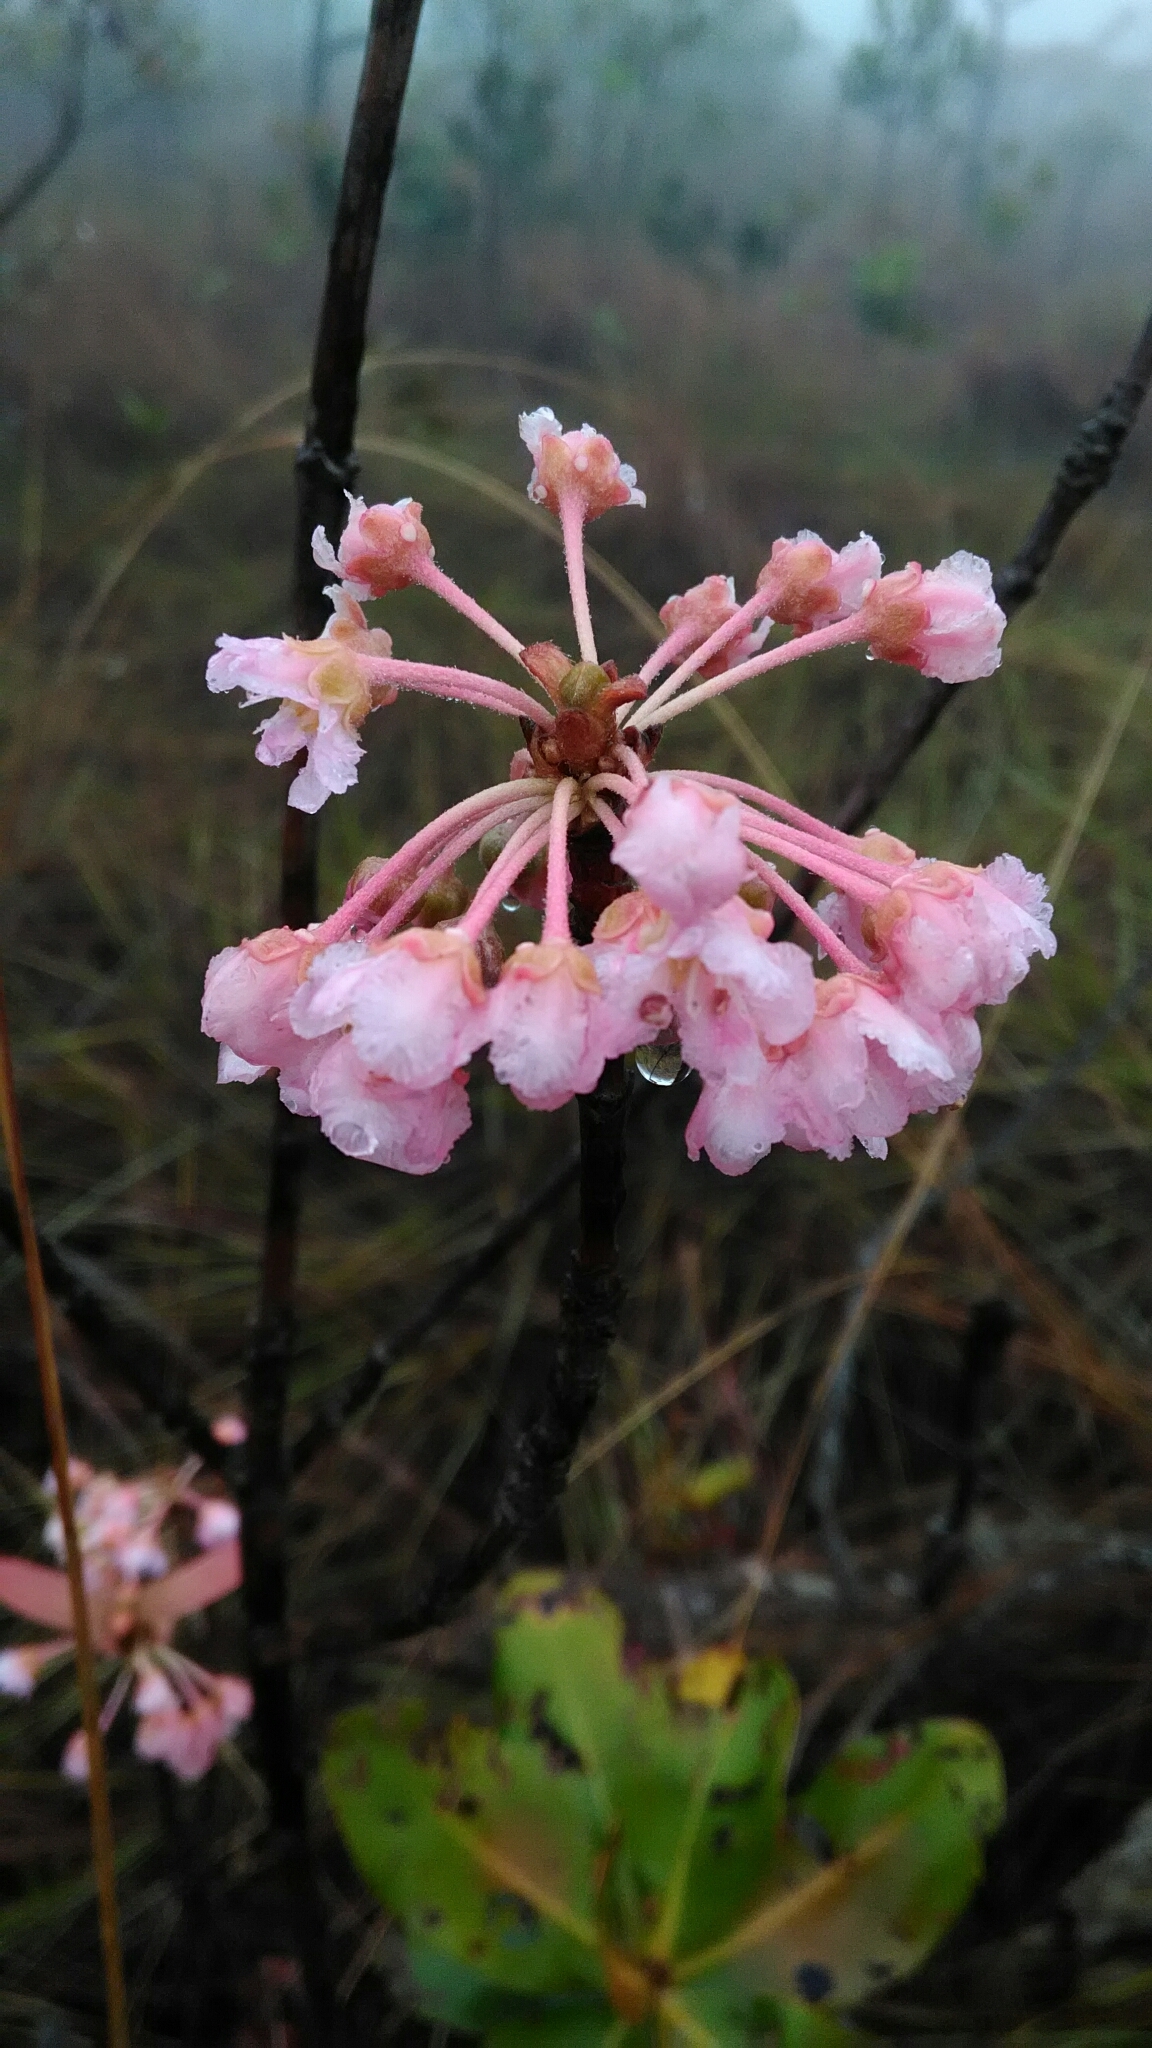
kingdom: Plantae
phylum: Tracheophyta
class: Magnoliopsida
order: Malpighiales
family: Malpighiaceae
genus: Pterandra
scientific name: Pterandra pyroidea
